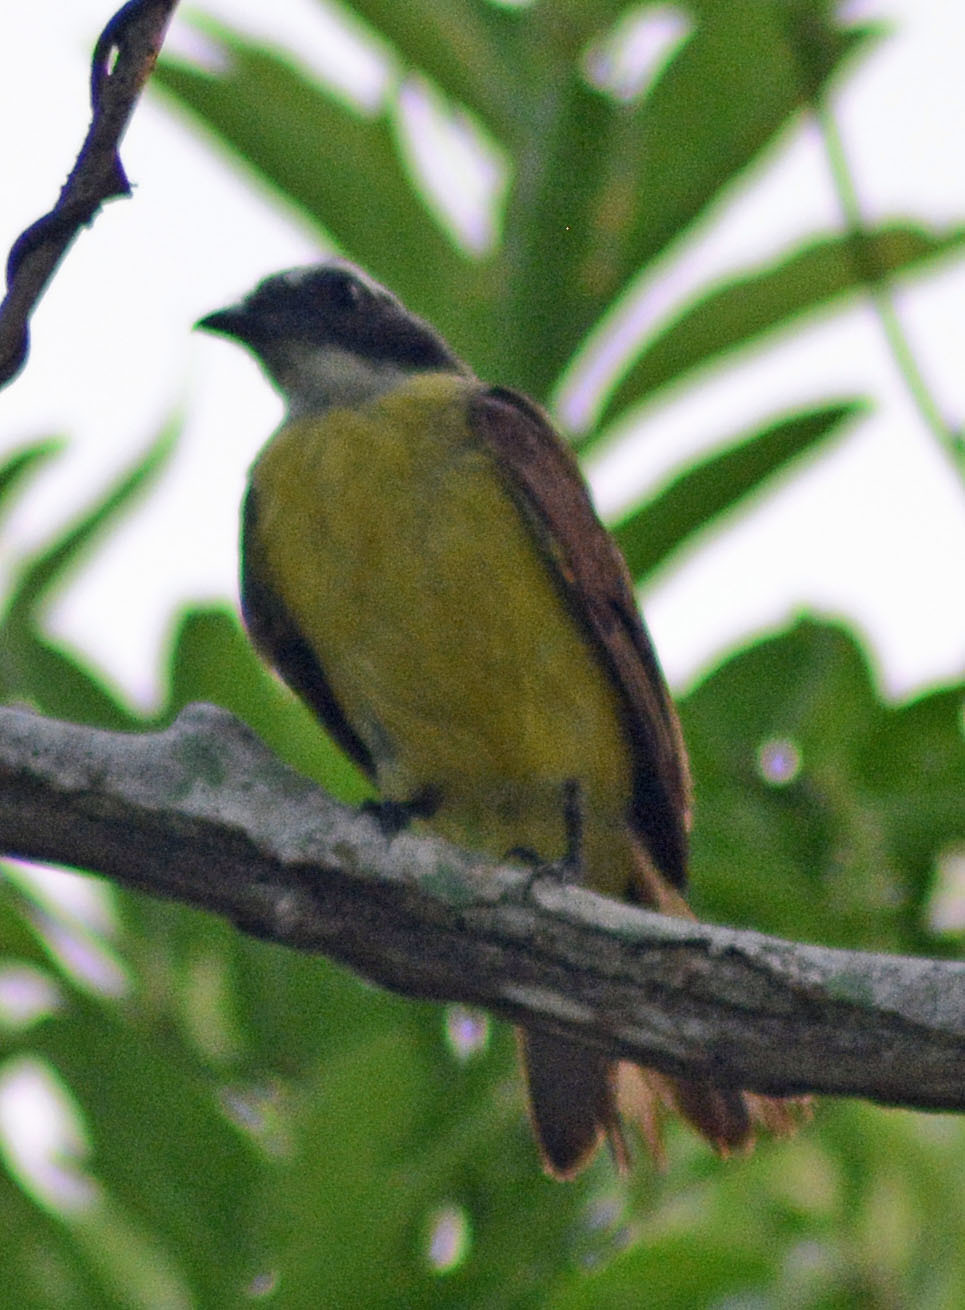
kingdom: Animalia
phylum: Chordata
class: Aves
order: Passeriformes
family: Tyrannidae
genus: Myiozetetes
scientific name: Myiozetetes similis
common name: Social flycatcher
